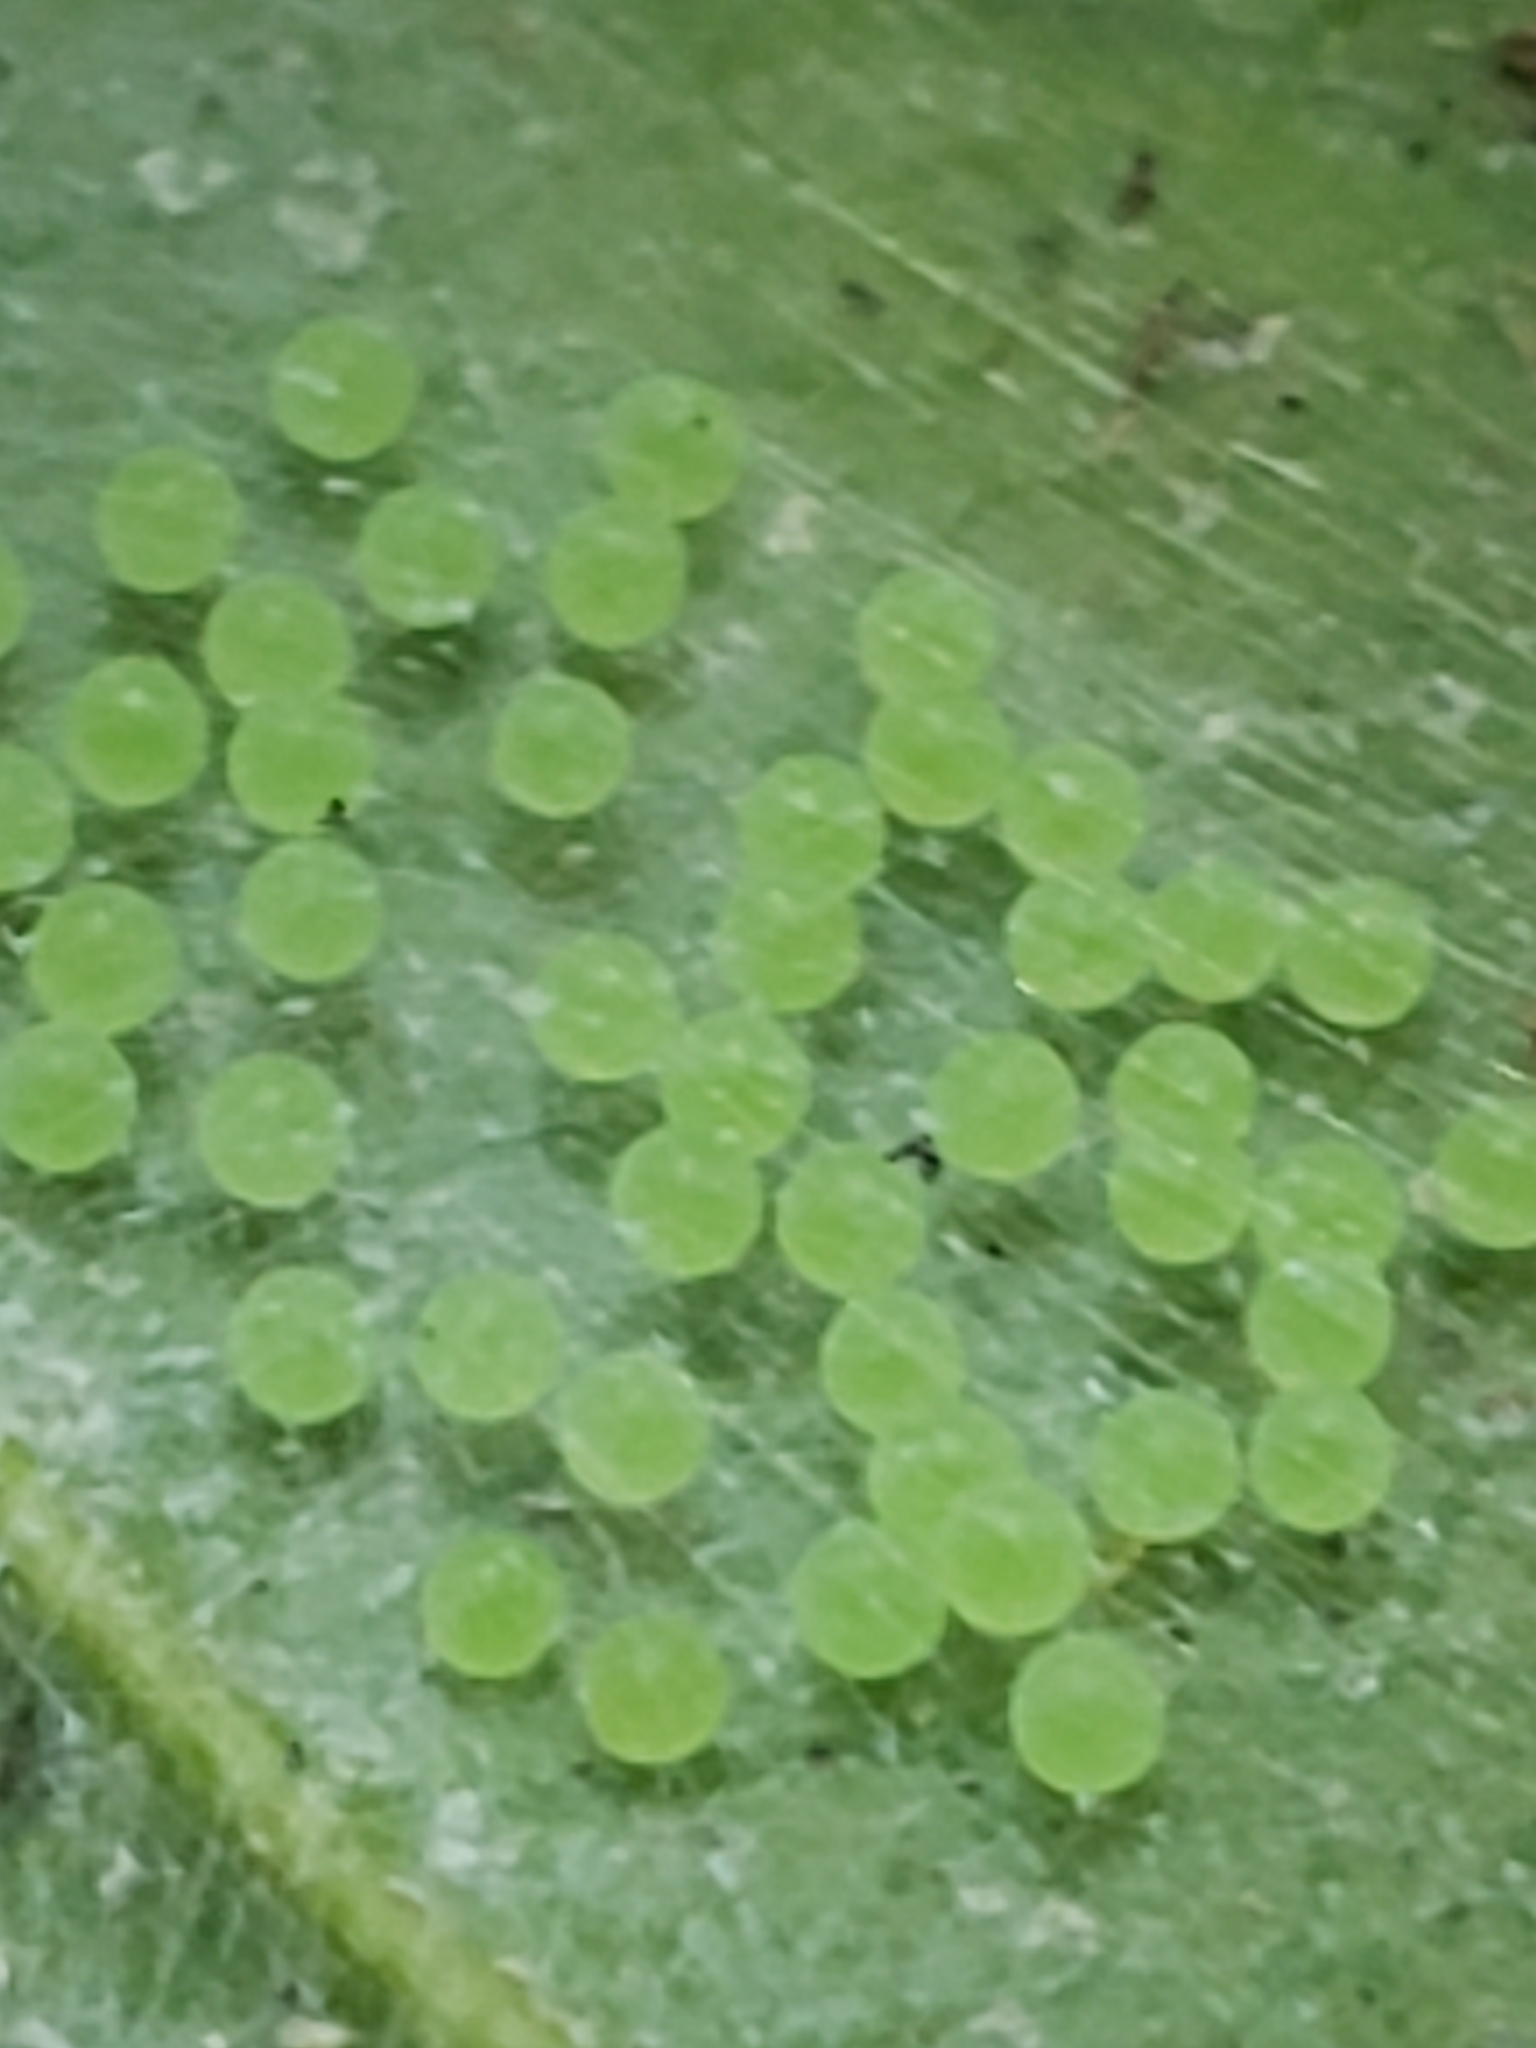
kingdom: Animalia
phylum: Arthropoda
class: Arachnida
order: Araneae
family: Salticidae
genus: Lyssomanes
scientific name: Lyssomanes viridis
